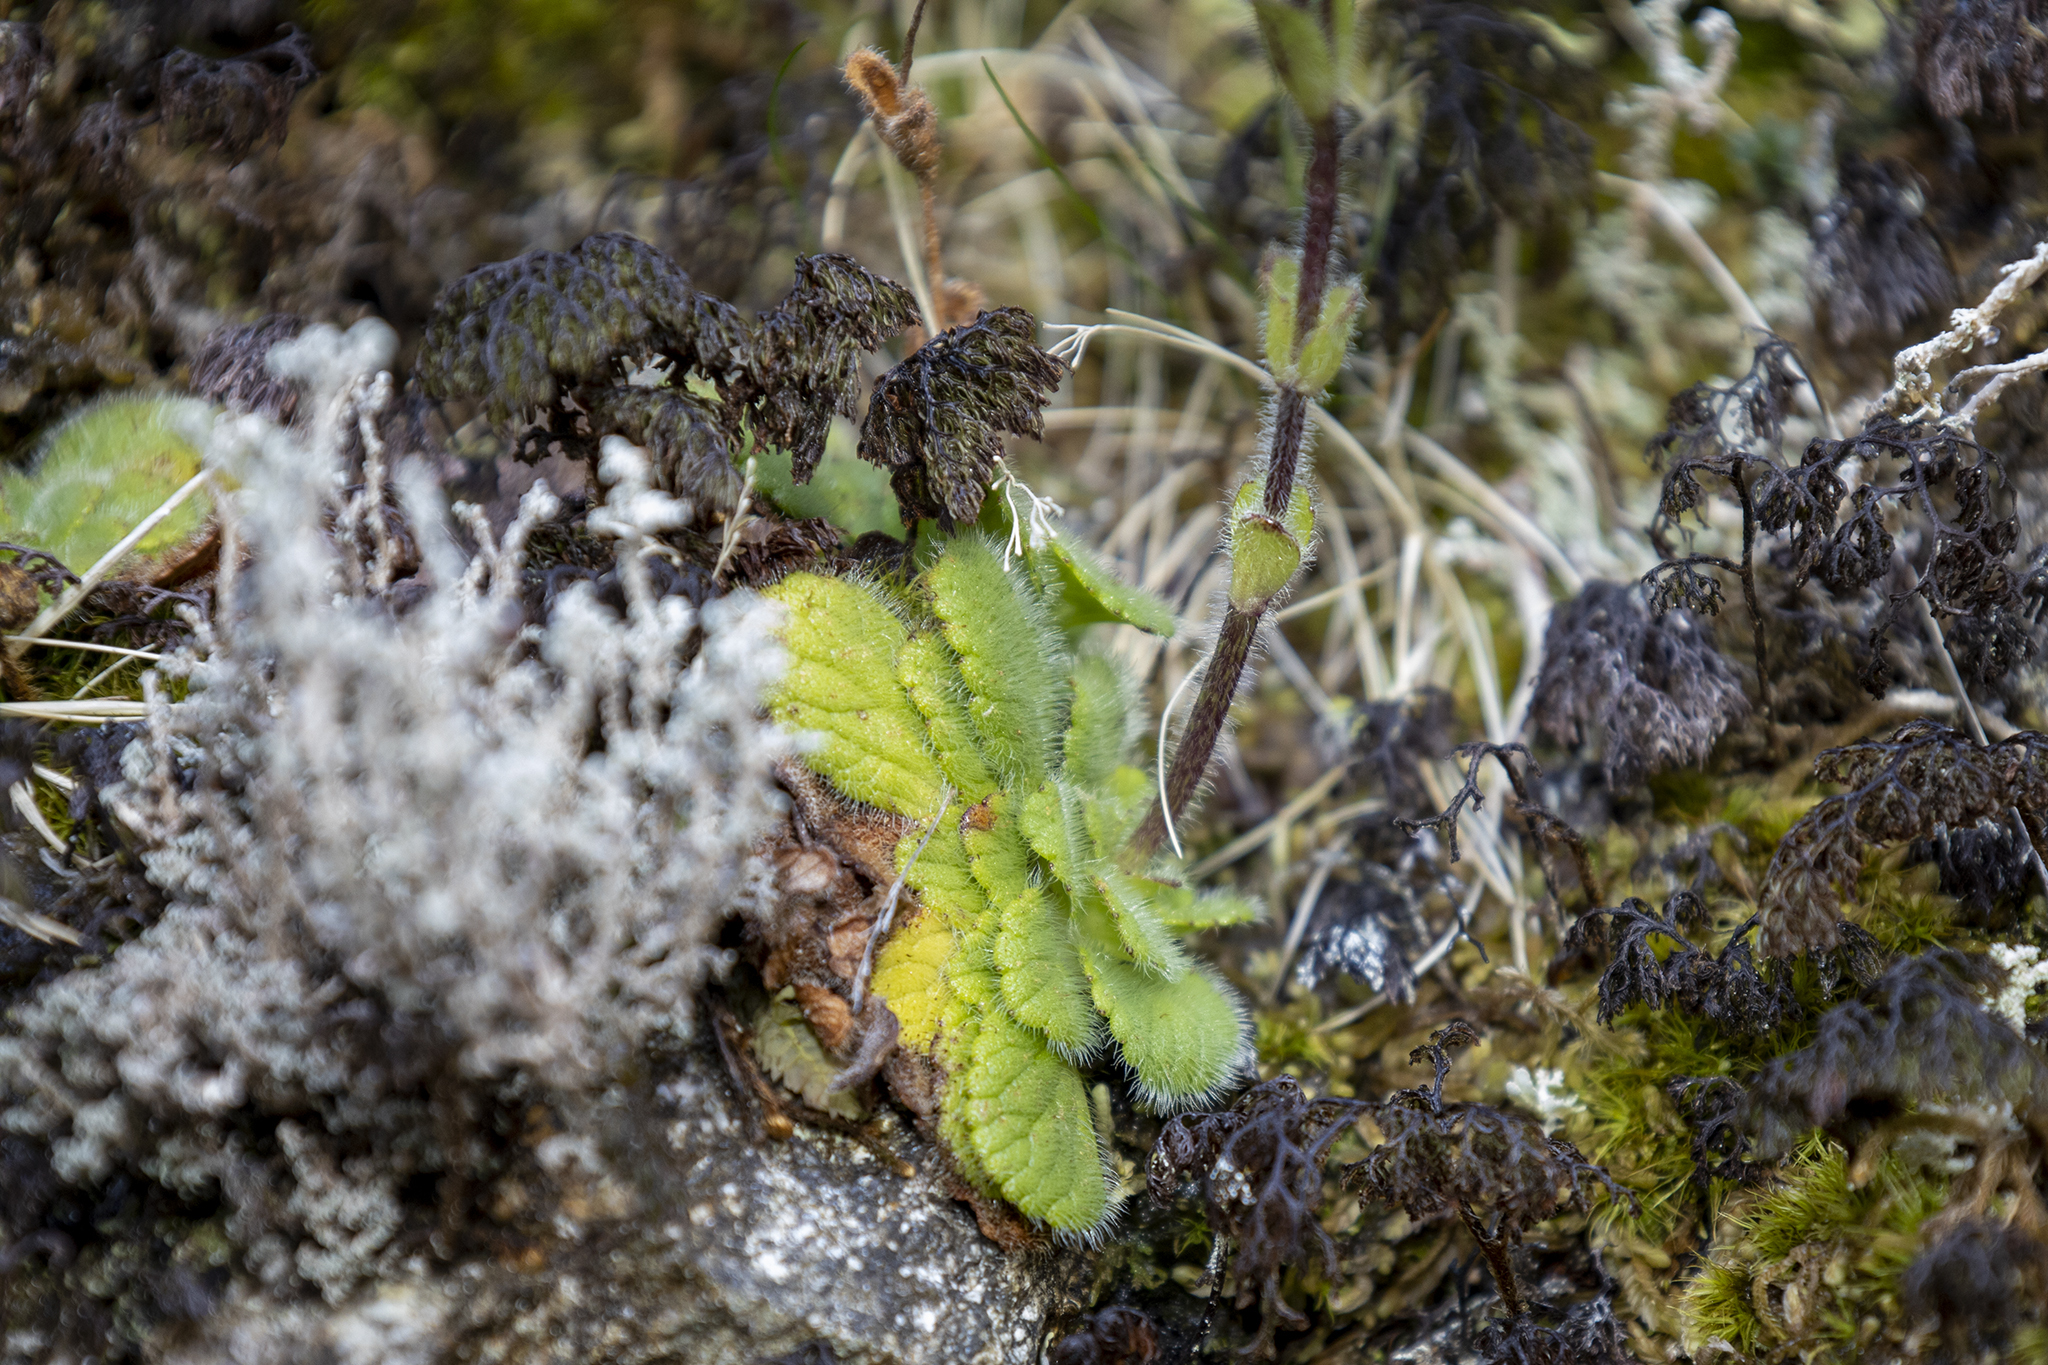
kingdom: Plantae
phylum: Tracheophyta
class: Magnoliopsida
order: Lamiales
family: Plantaginaceae
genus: Ourisia
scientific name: Ourisia simpsonii
